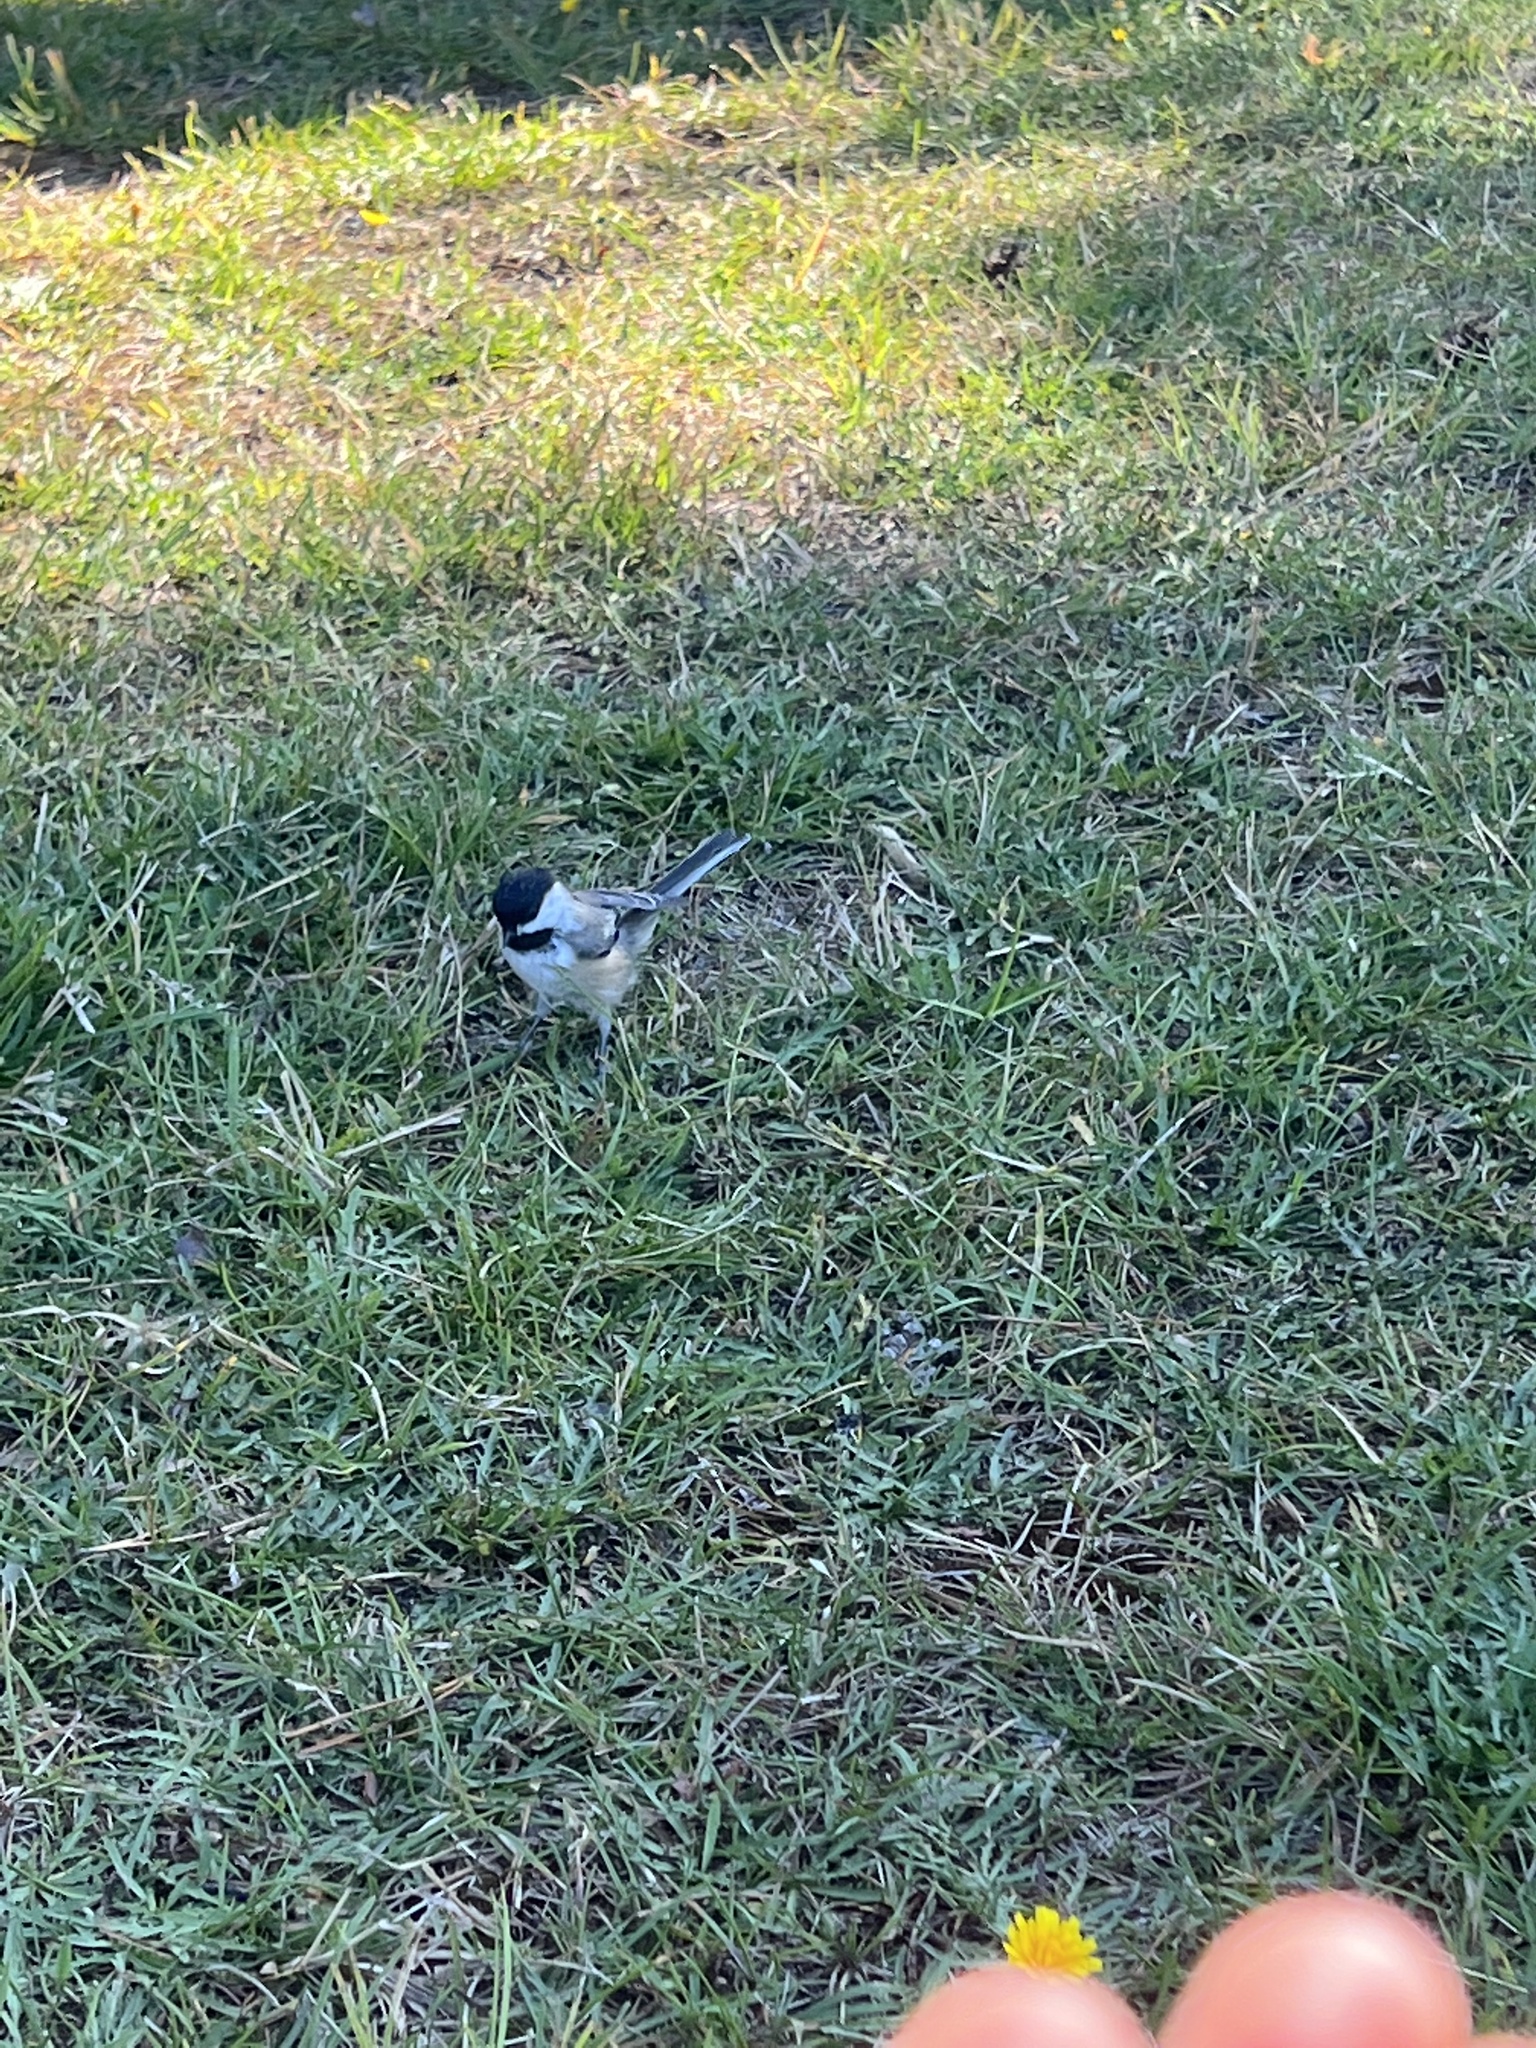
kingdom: Animalia
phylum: Chordata
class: Aves
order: Passeriformes
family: Paridae
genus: Poecile
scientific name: Poecile atricapillus
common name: Black-capped chickadee
